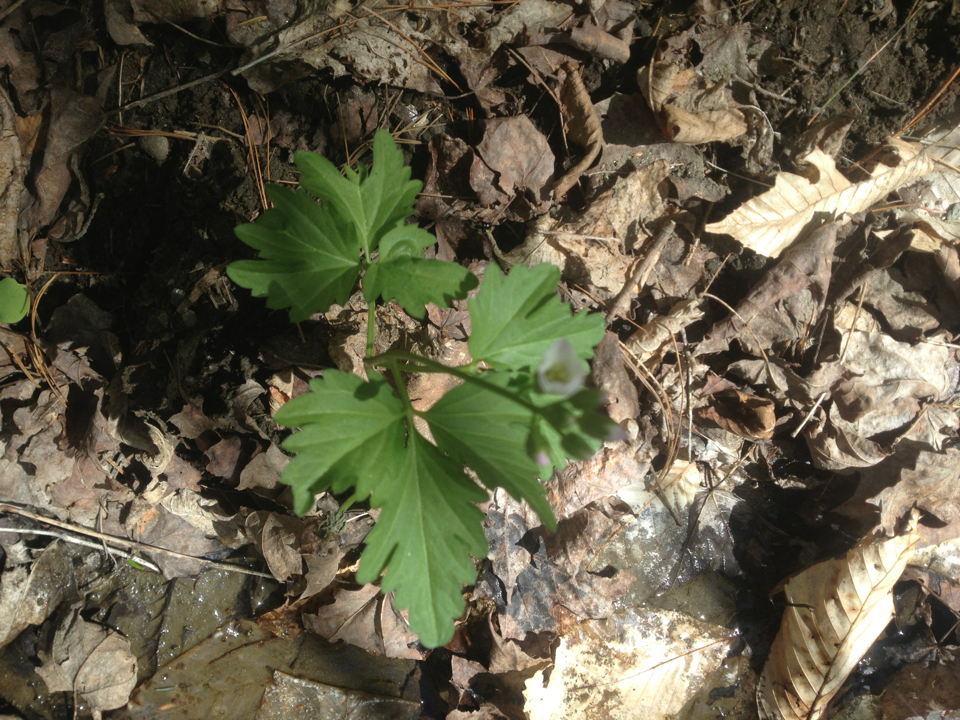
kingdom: Plantae
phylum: Tracheophyta
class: Magnoliopsida
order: Brassicales
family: Brassicaceae
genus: Cardamine
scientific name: Cardamine diphylla
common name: Broad-leaved toothwort
